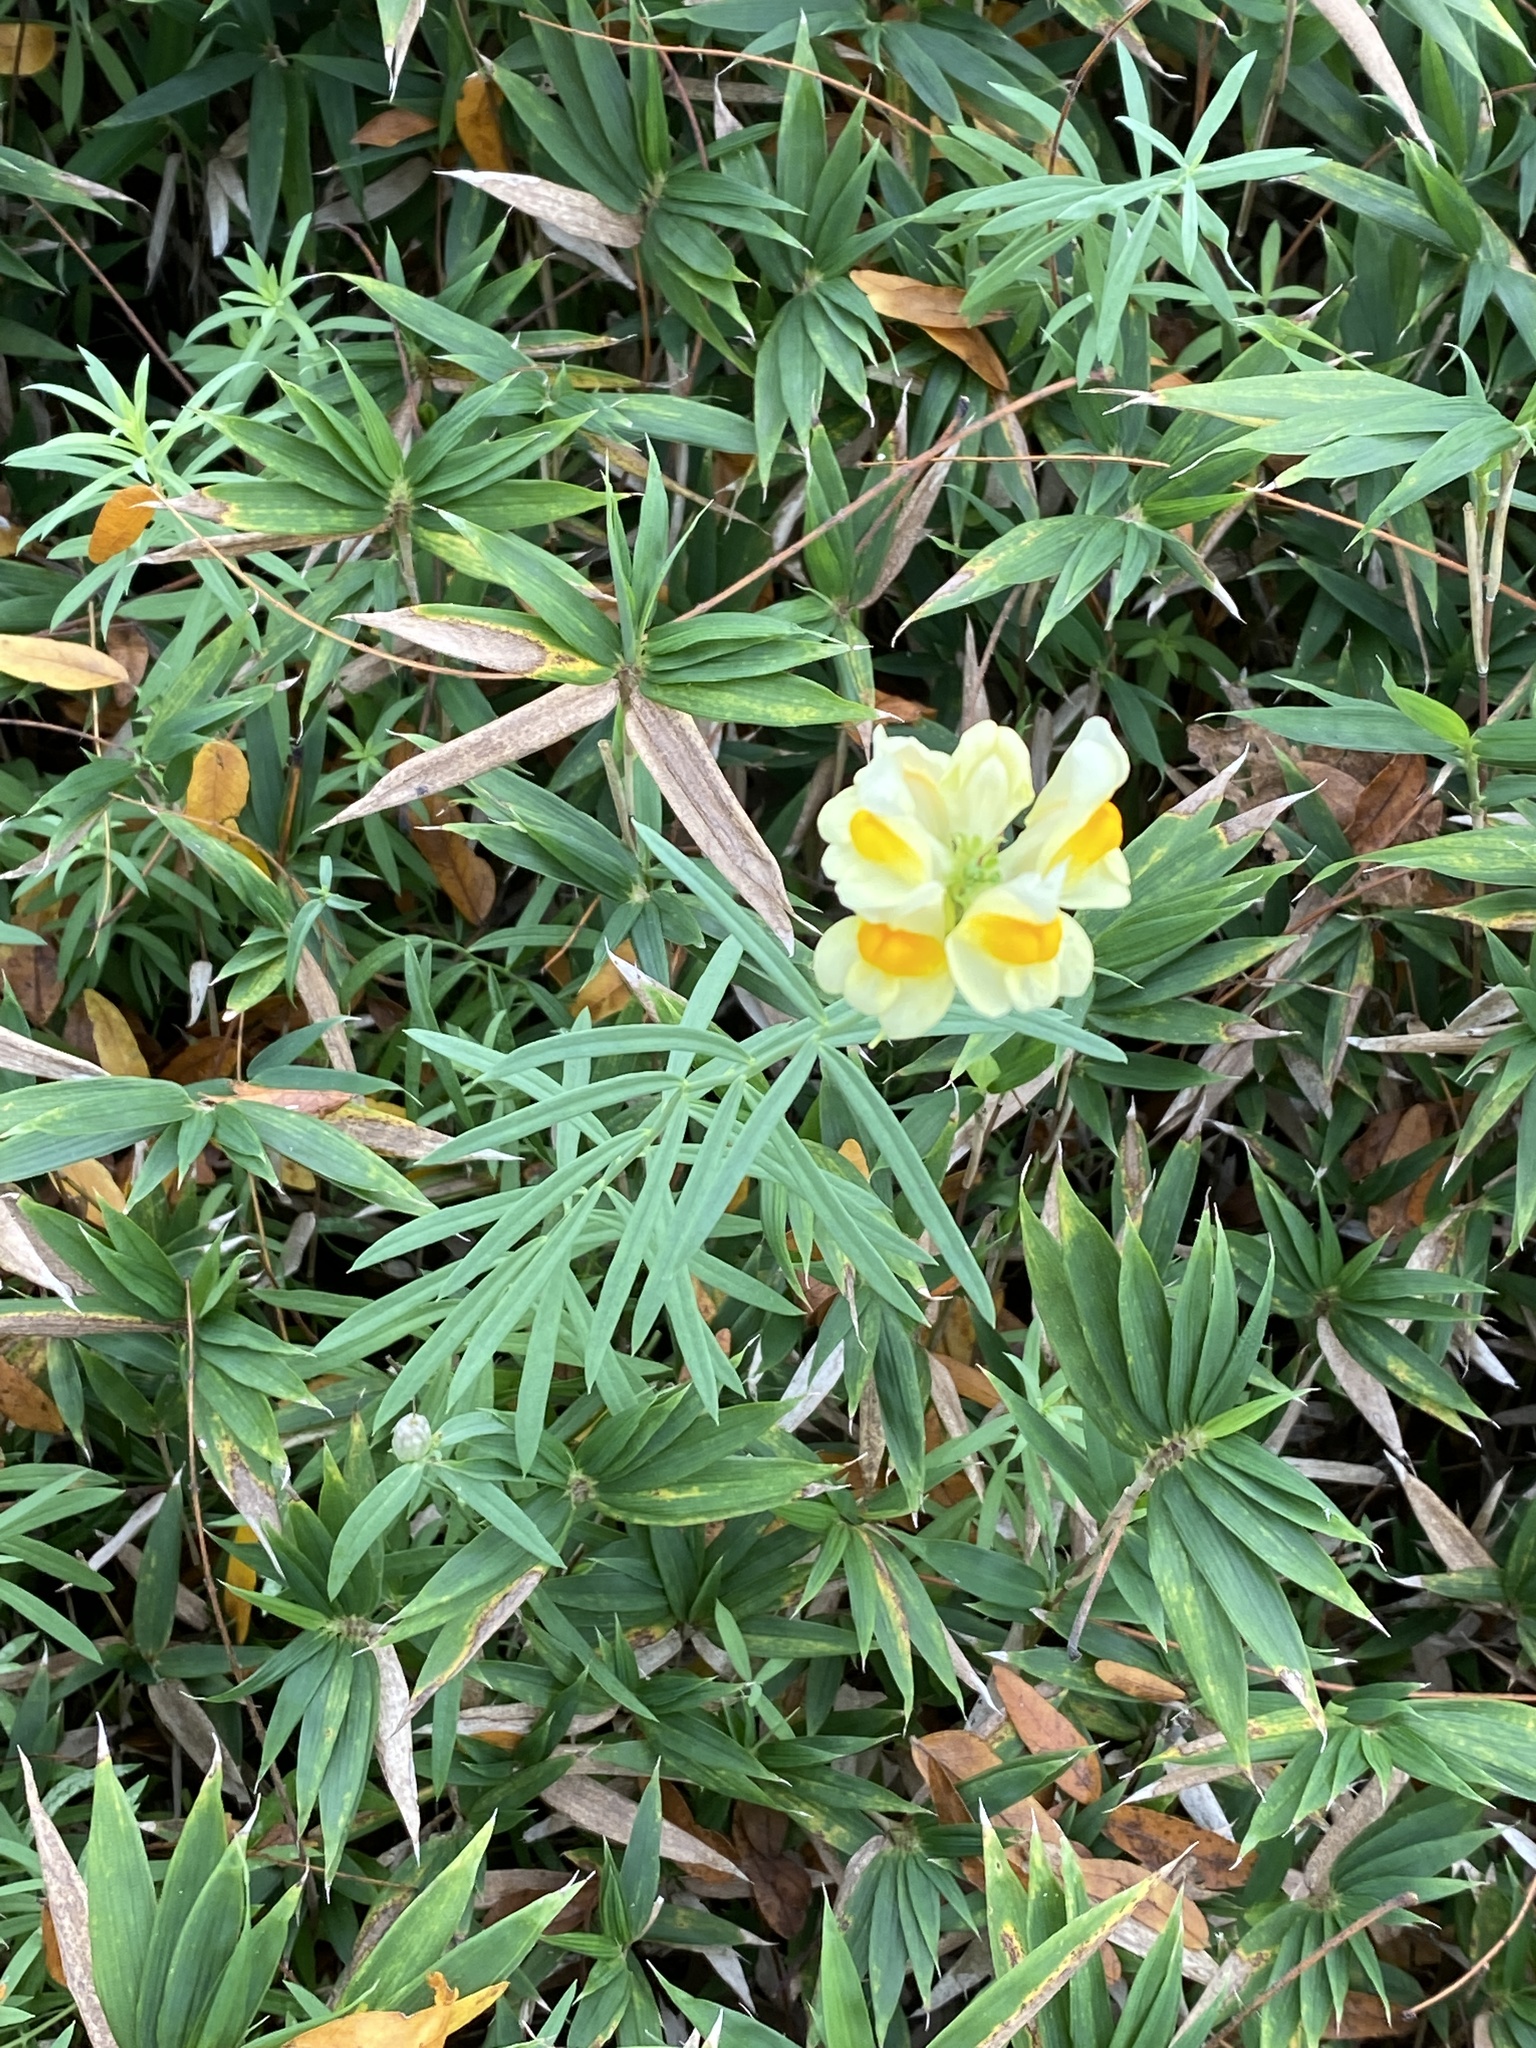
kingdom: Plantae
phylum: Tracheophyta
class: Magnoliopsida
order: Lamiales
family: Plantaginaceae
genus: Linaria
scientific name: Linaria vulgaris
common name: Butter and eggs
